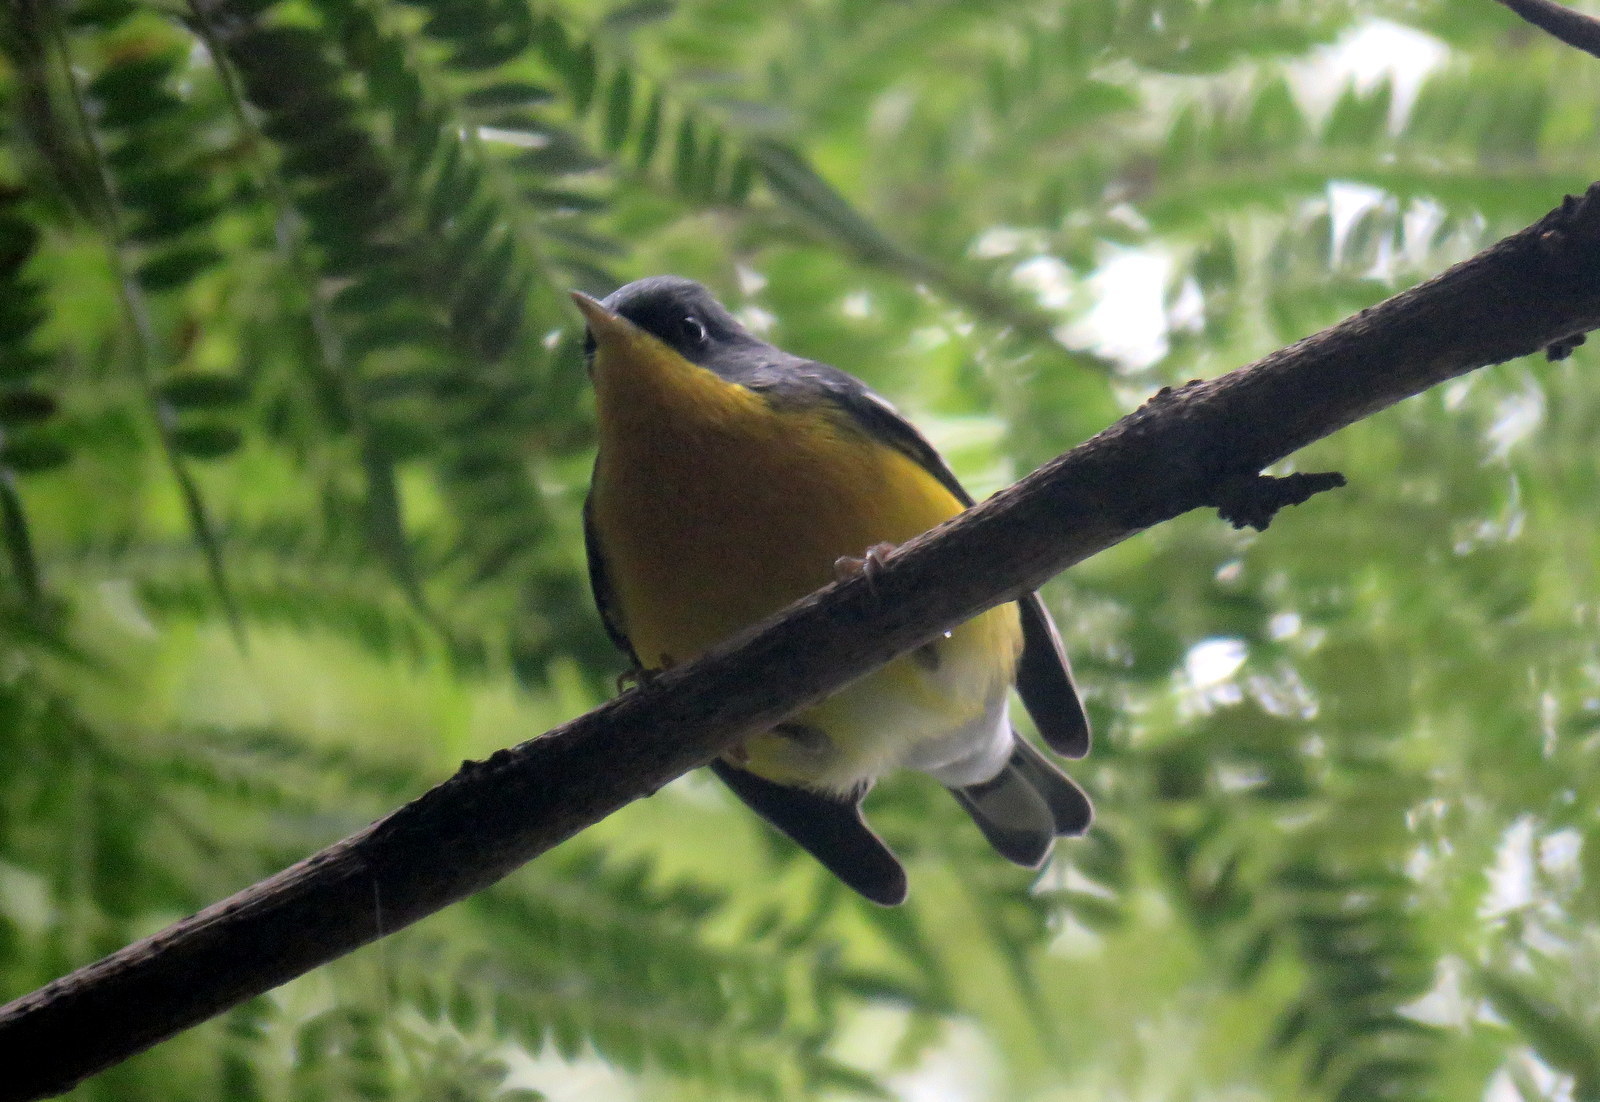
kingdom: Animalia
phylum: Chordata
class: Aves
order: Passeriformes
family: Parulidae
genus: Setophaga
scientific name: Setophaga pitiayumi
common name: Tropical parula
